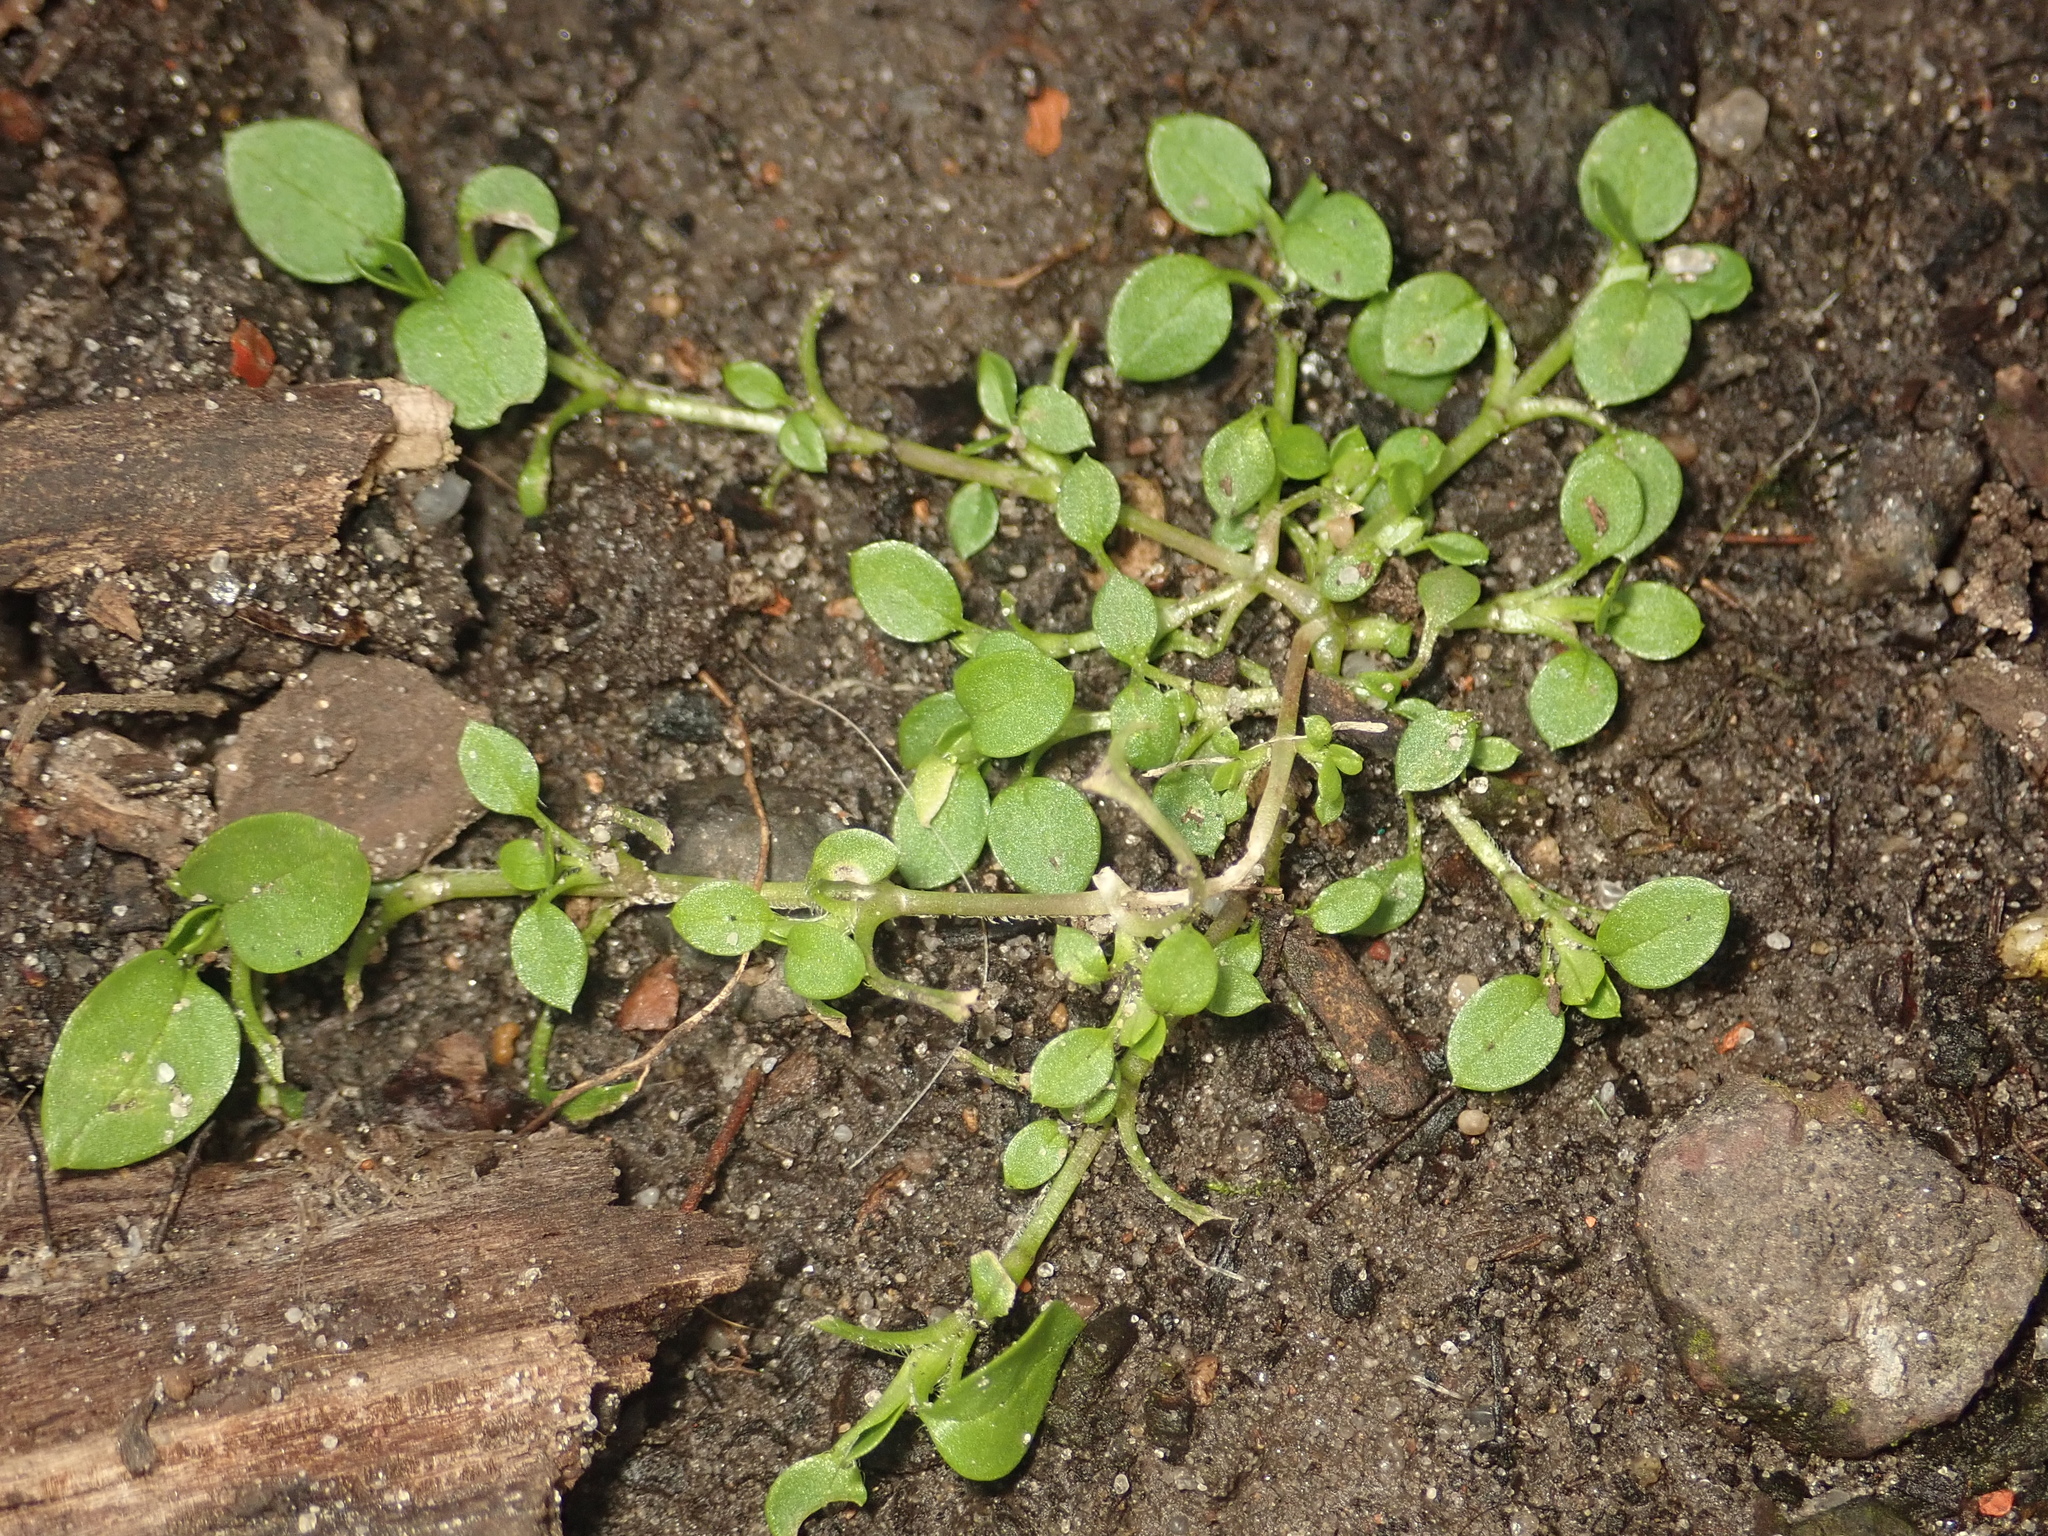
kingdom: Plantae
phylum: Tracheophyta
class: Magnoliopsida
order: Caryophyllales
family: Caryophyllaceae
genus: Stellaria
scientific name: Stellaria media
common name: Common chickweed
